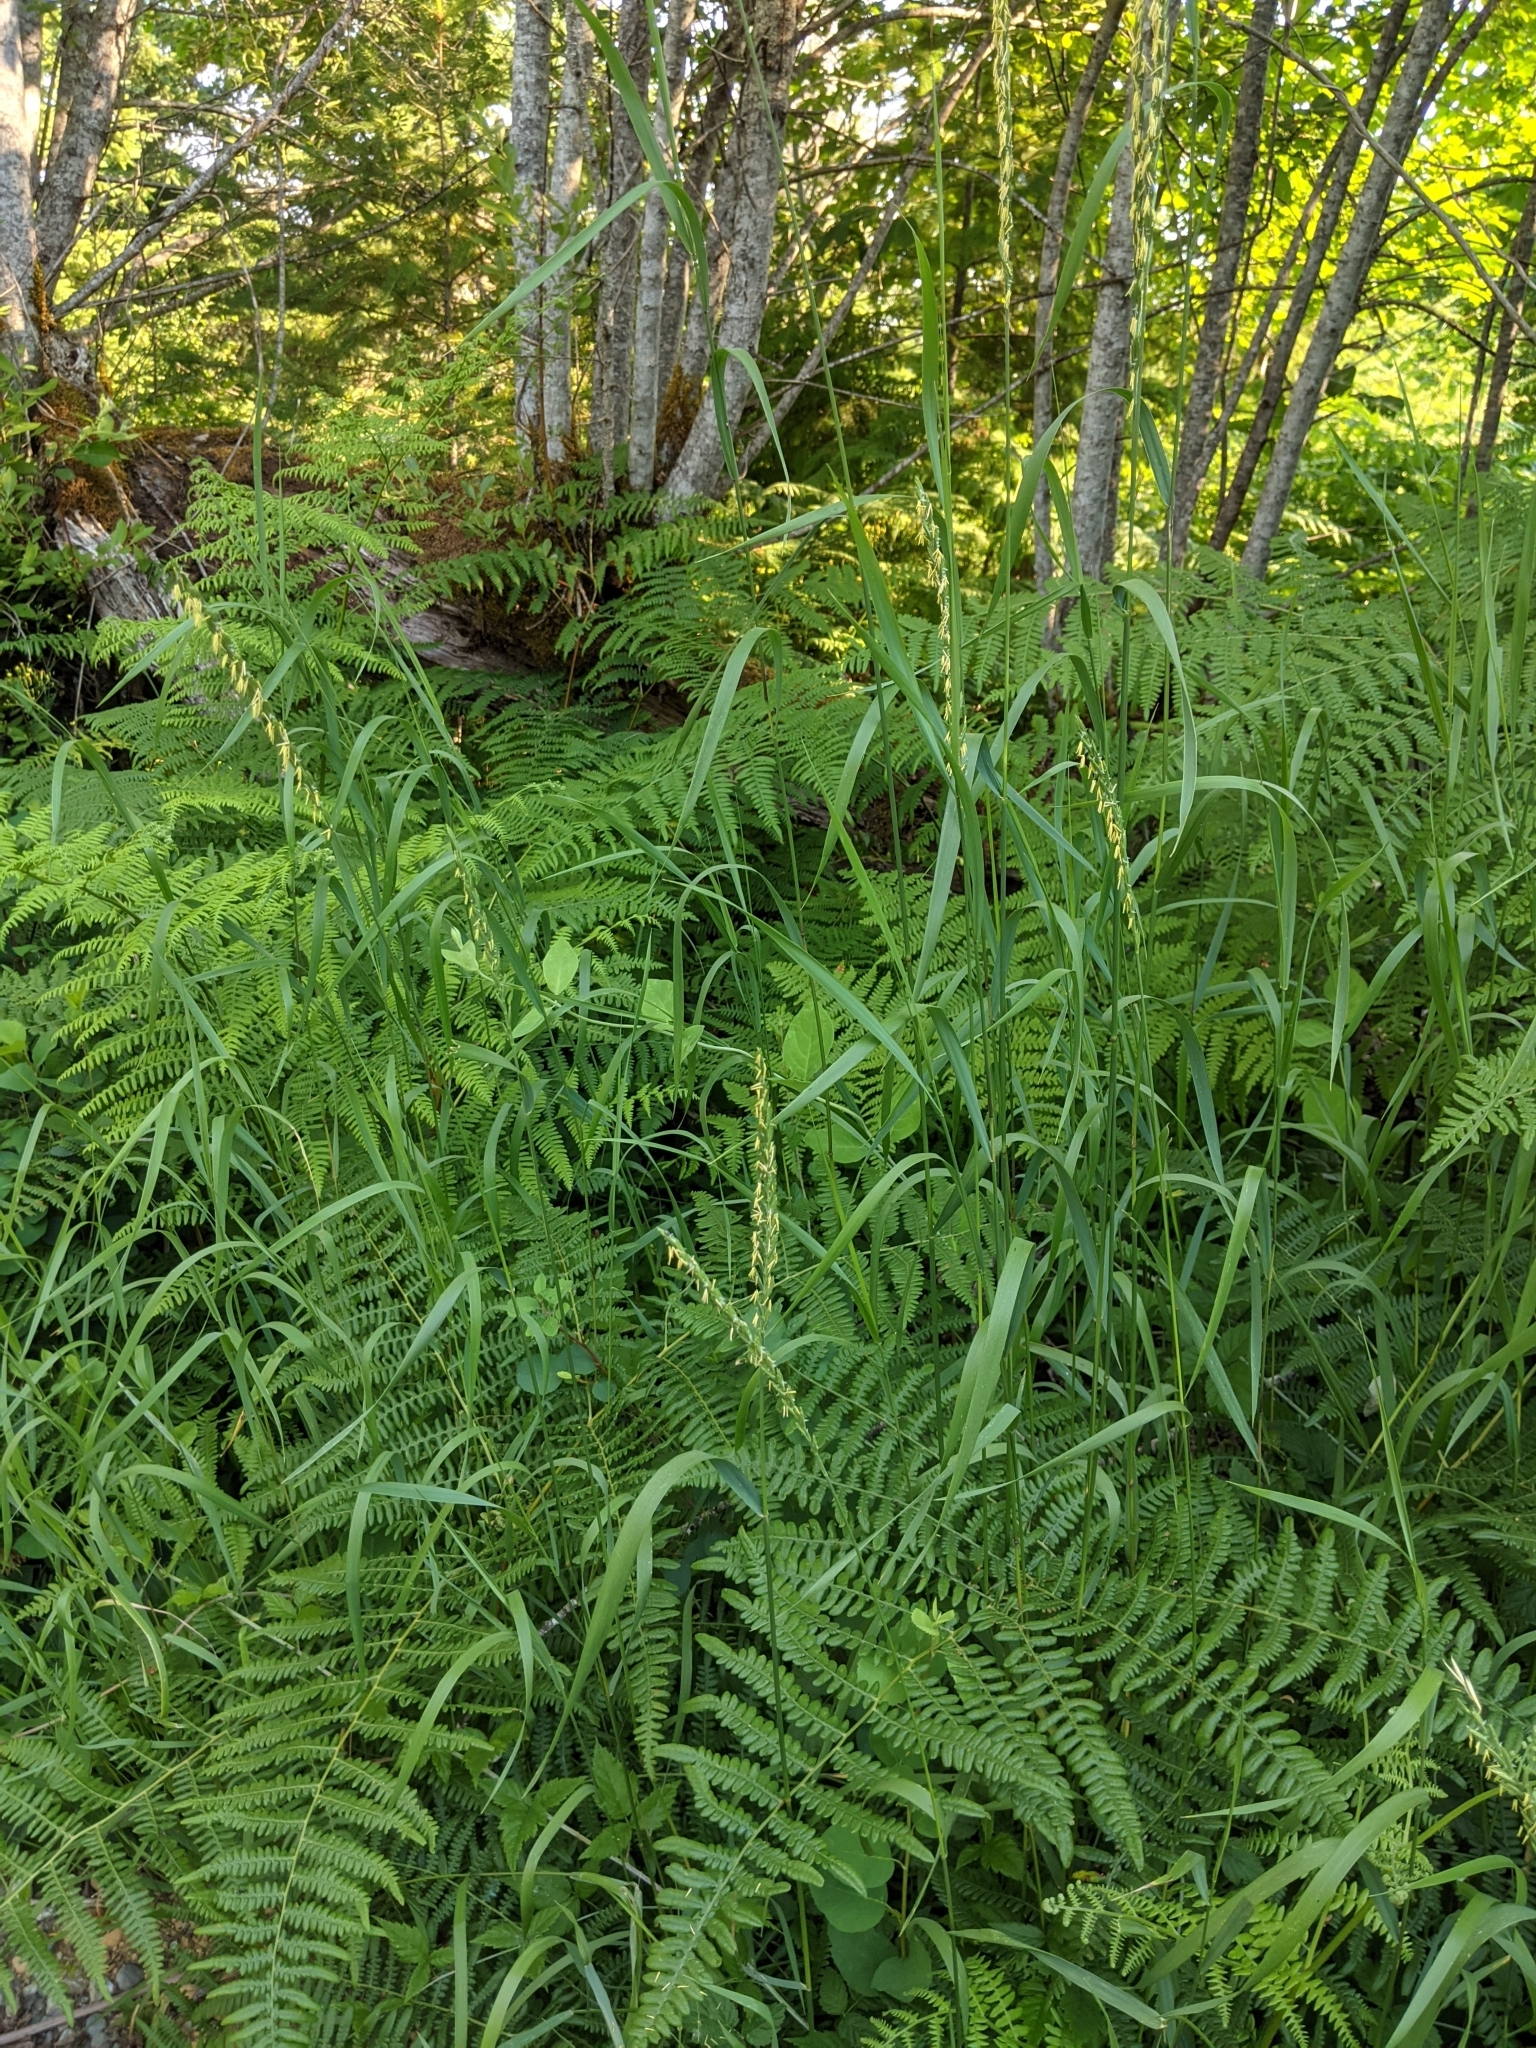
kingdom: Plantae
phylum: Tracheophyta
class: Liliopsida
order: Poales
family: Poaceae
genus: Elymus
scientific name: Elymus repens
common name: Quackgrass
